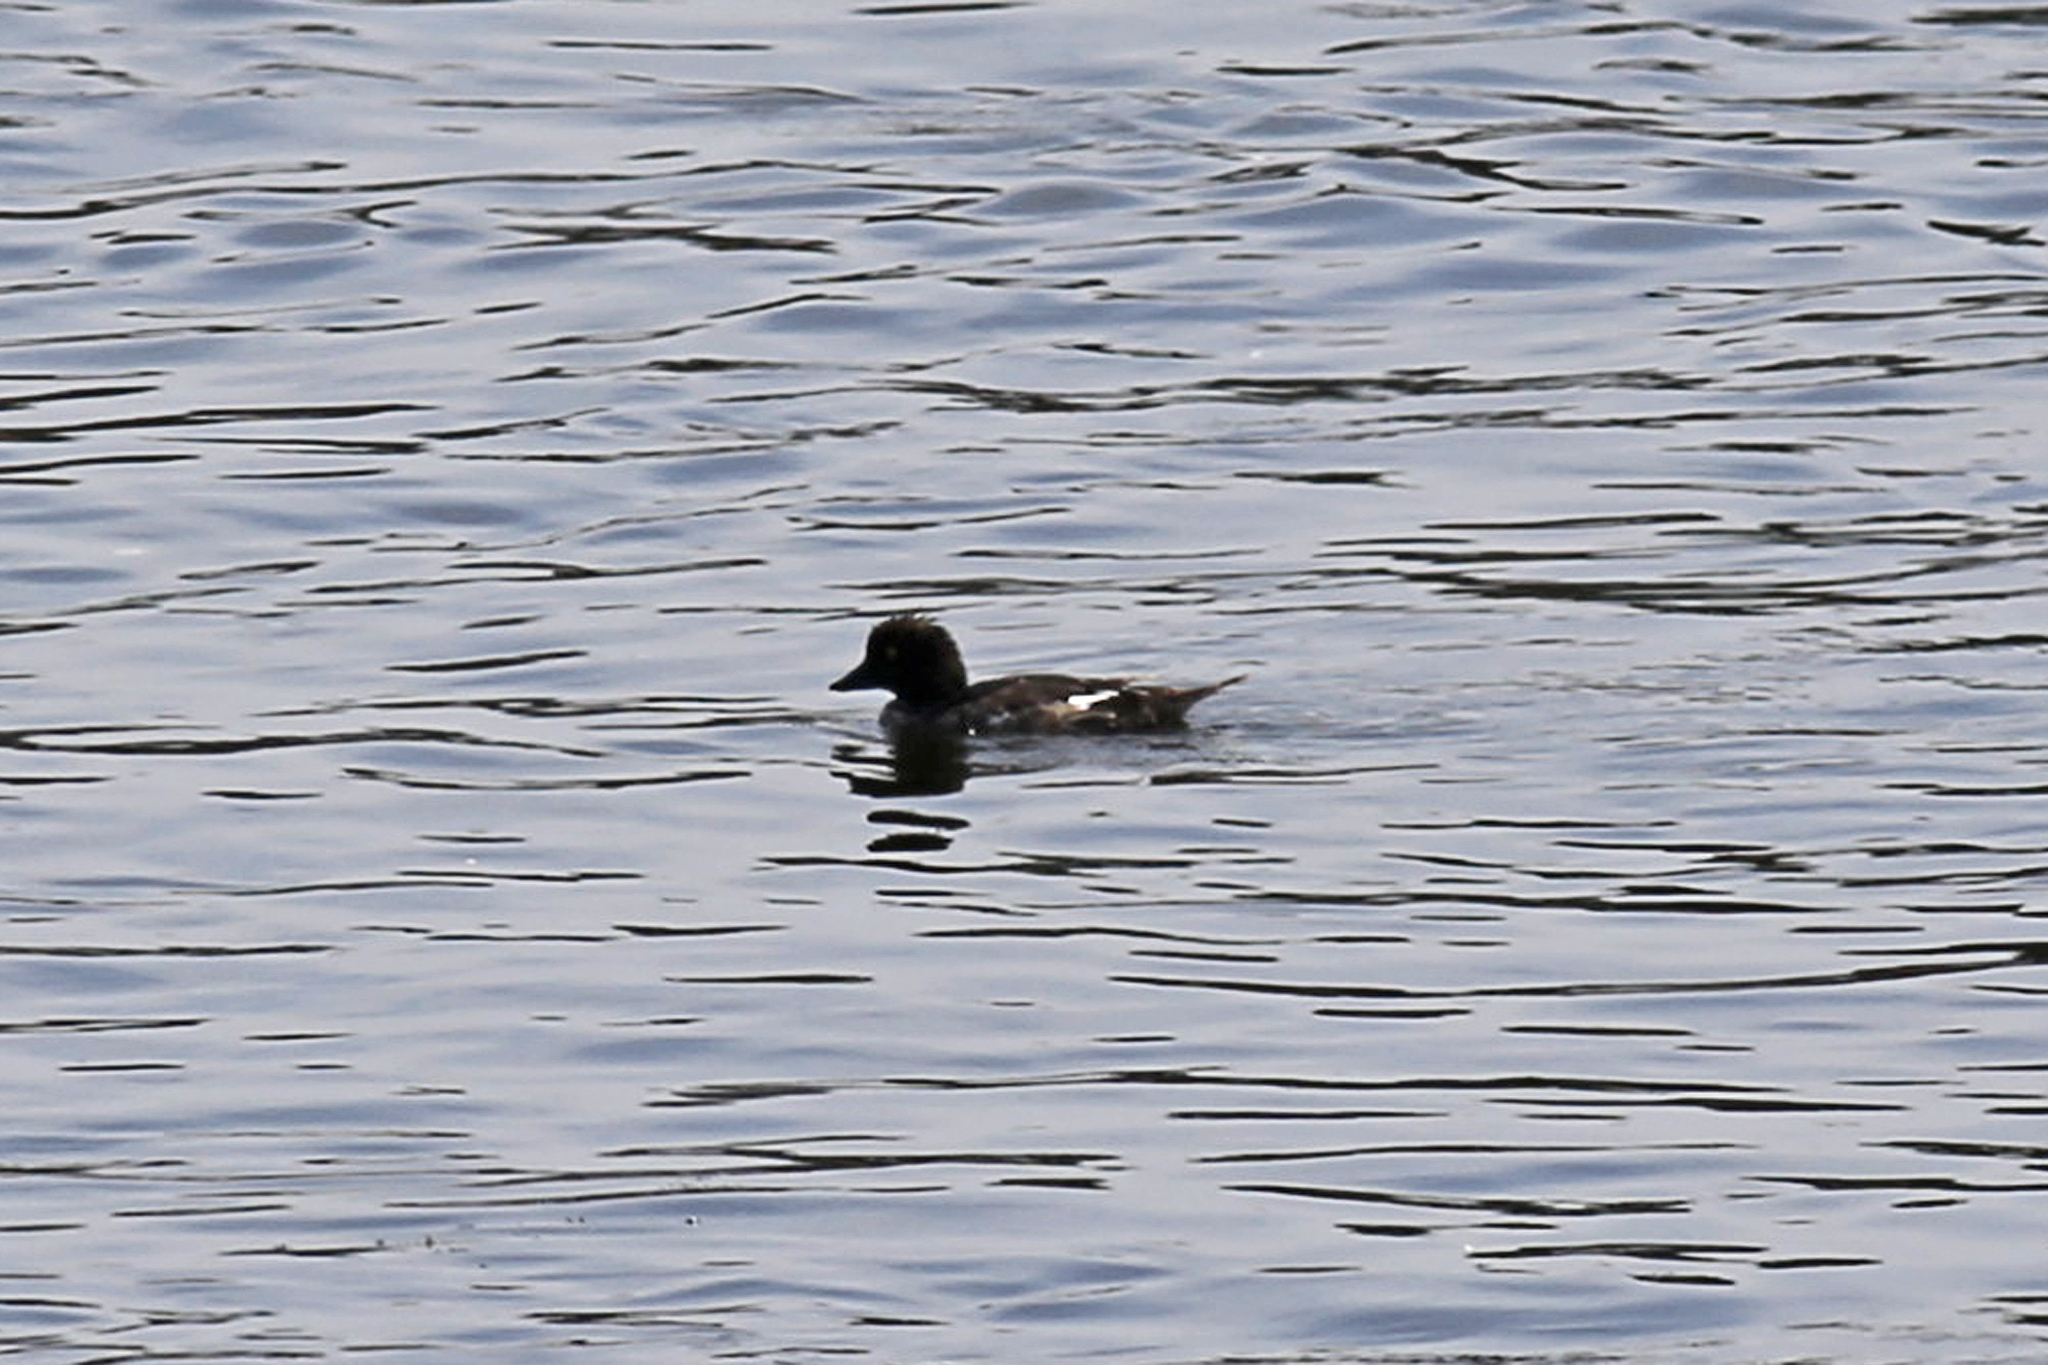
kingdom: Animalia
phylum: Chordata
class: Aves
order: Anseriformes
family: Anatidae
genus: Bucephala
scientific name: Bucephala clangula
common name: Common goldeneye
